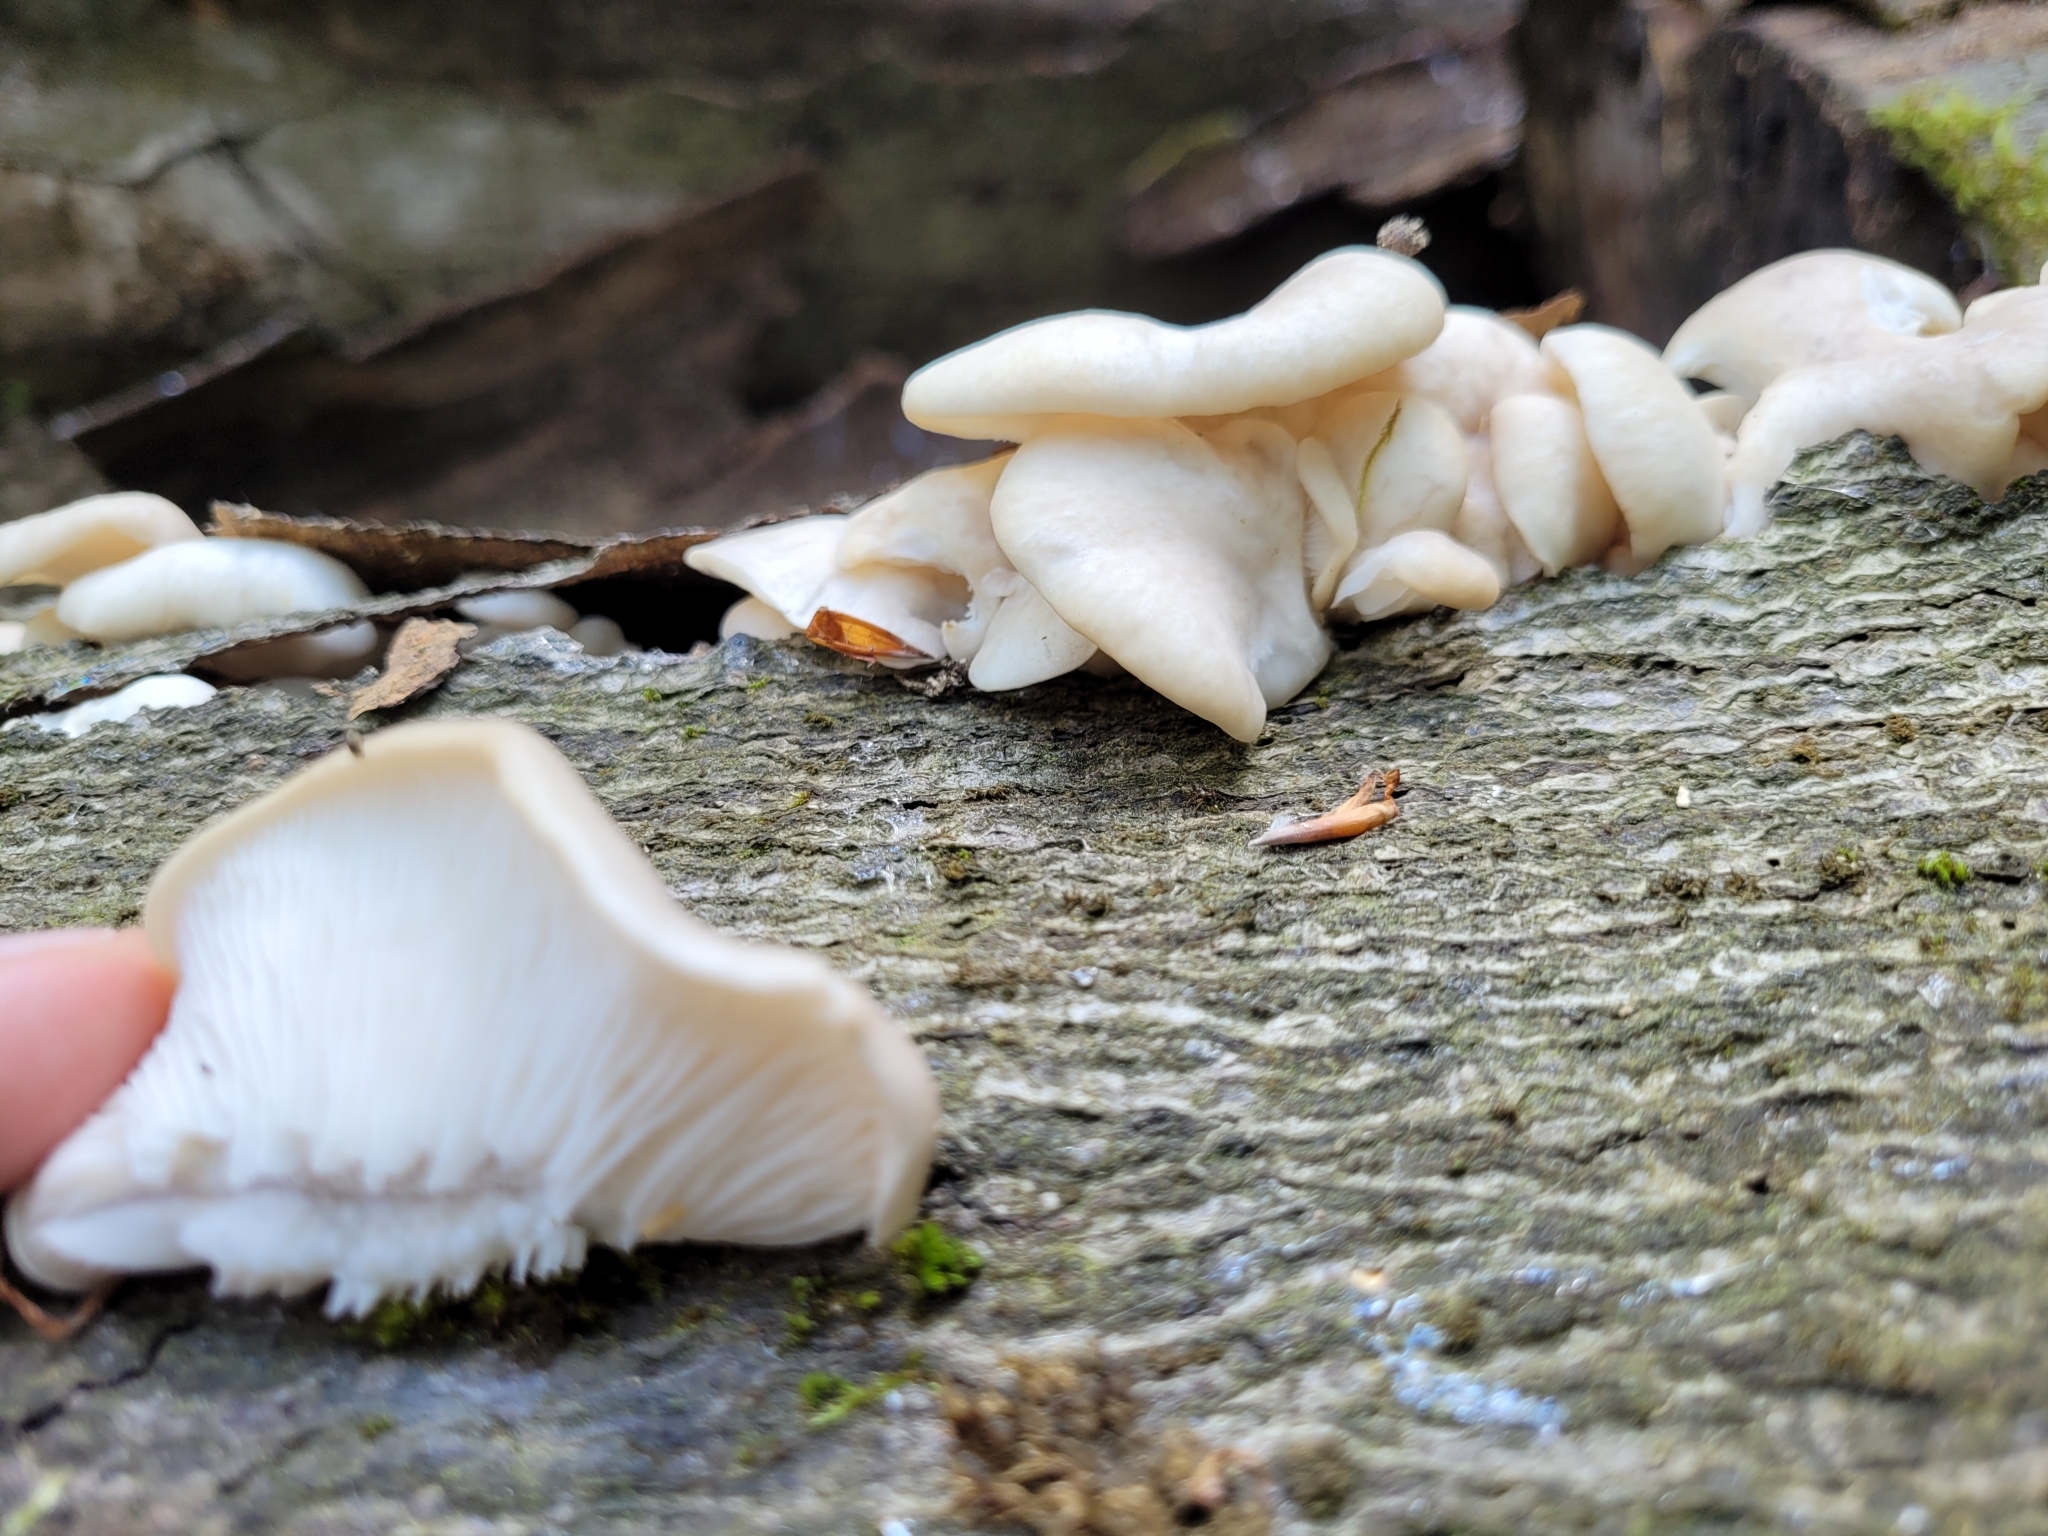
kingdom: Fungi
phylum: Basidiomycota
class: Agaricomycetes
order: Agaricales
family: Pleurotaceae
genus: Pleurotus
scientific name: Pleurotus pulmonarius
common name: Pale oyster
